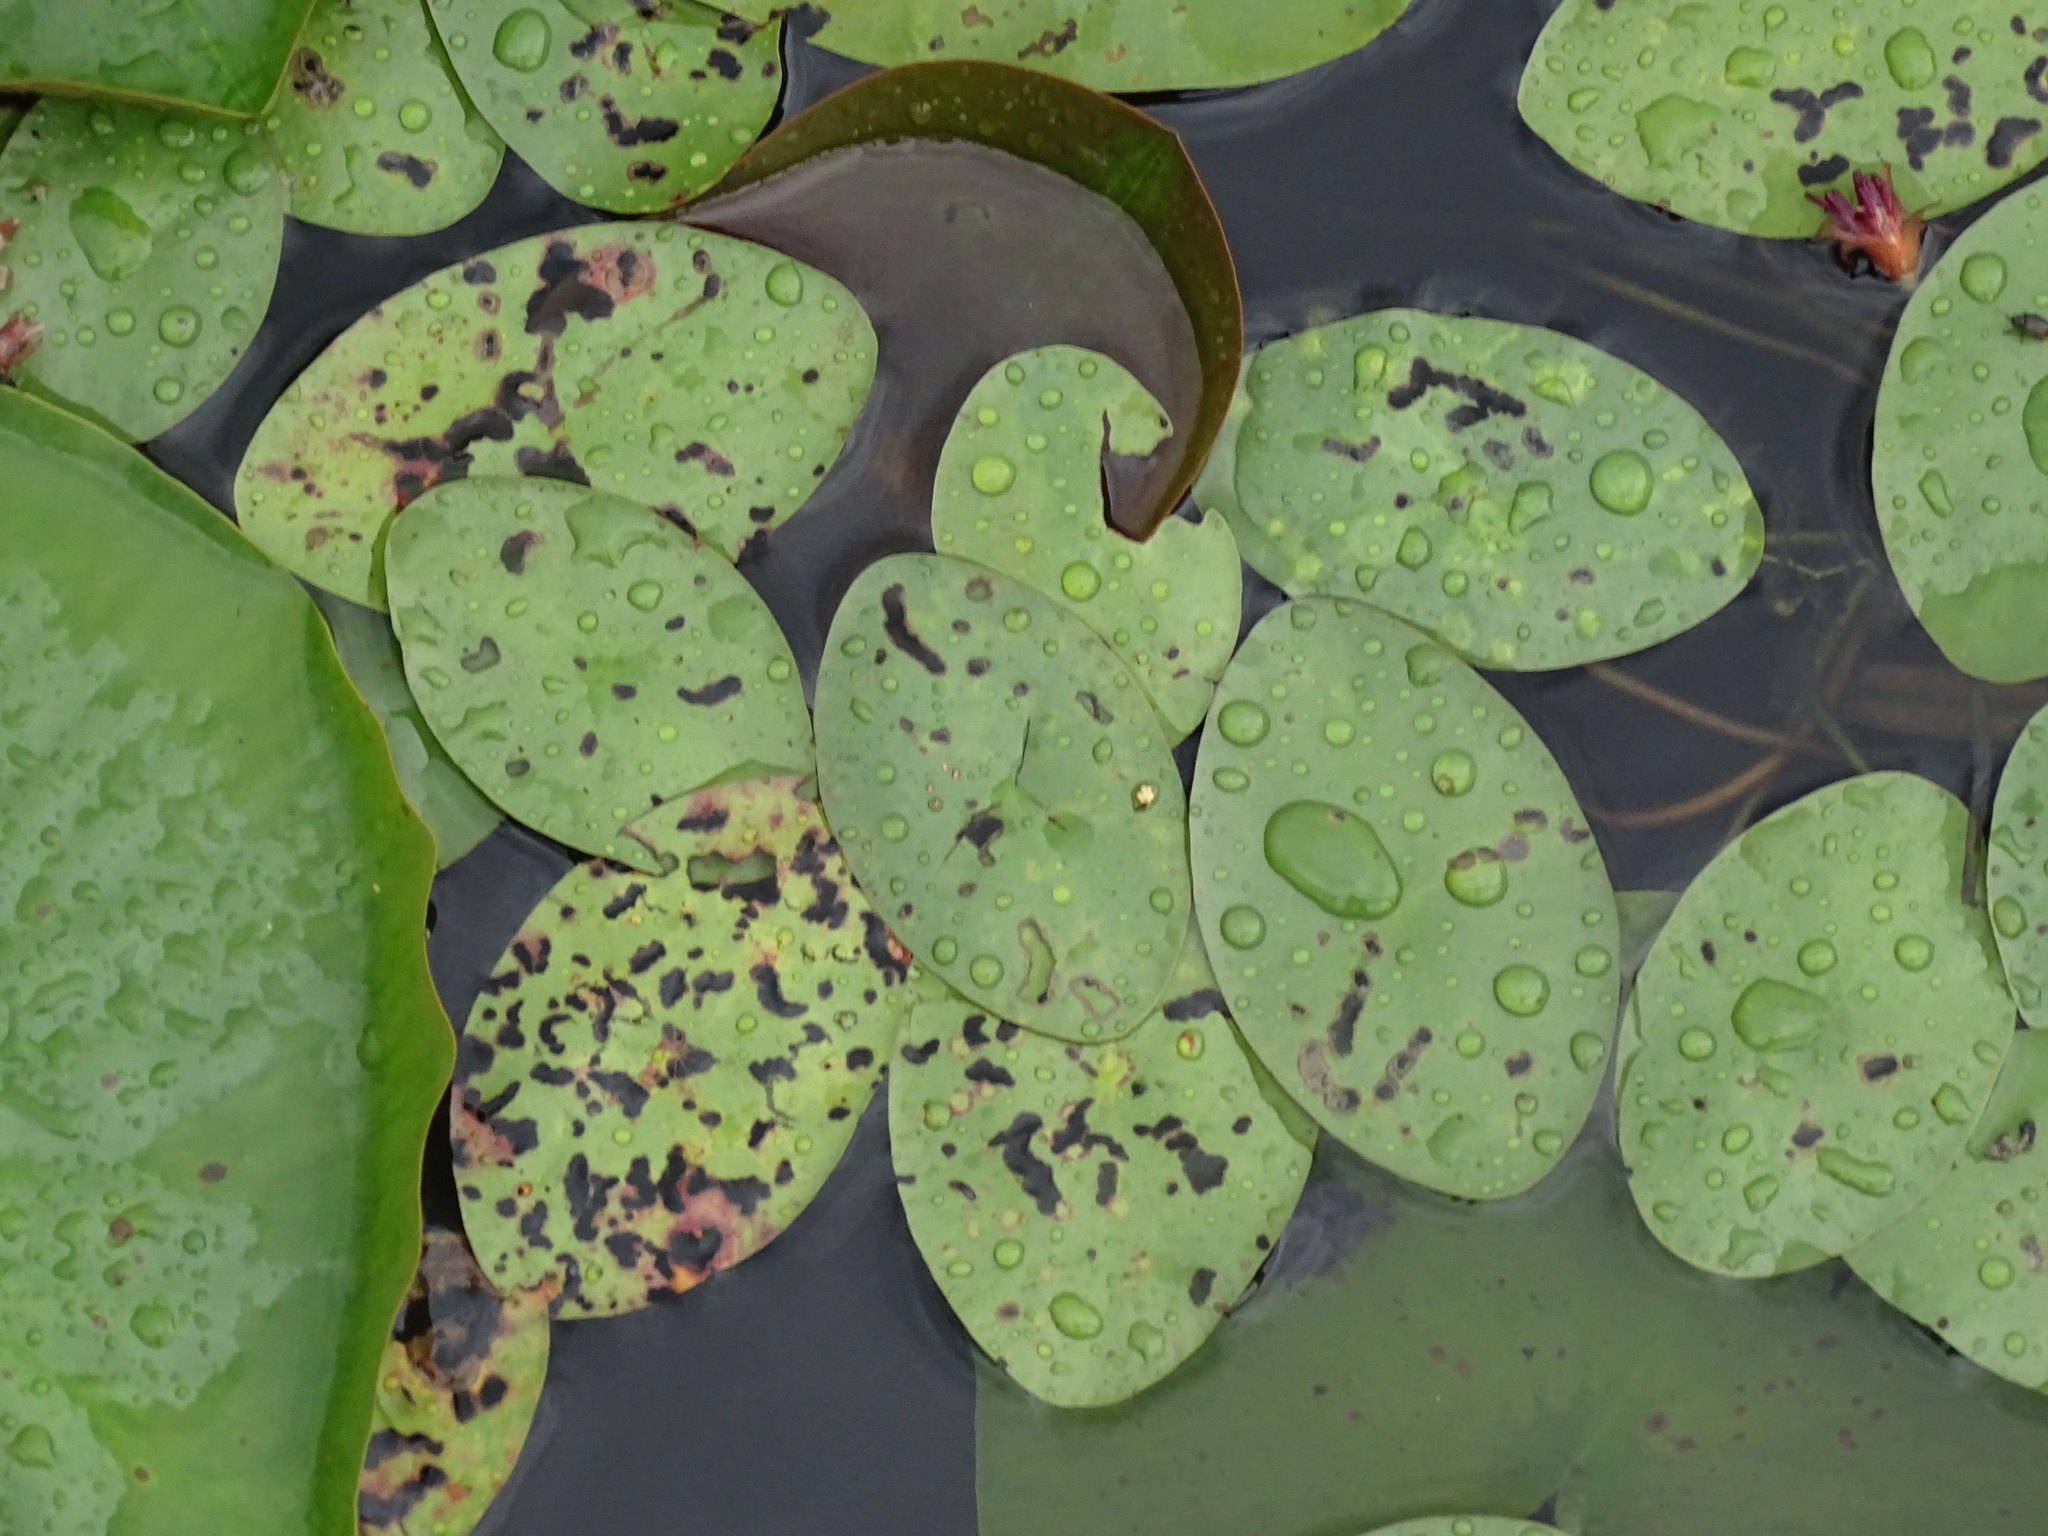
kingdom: Plantae
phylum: Tracheophyta
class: Magnoliopsida
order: Nymphaeales
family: Cabombaceae
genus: Brasenia
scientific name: Brasenia schreberi
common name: Water-shield
